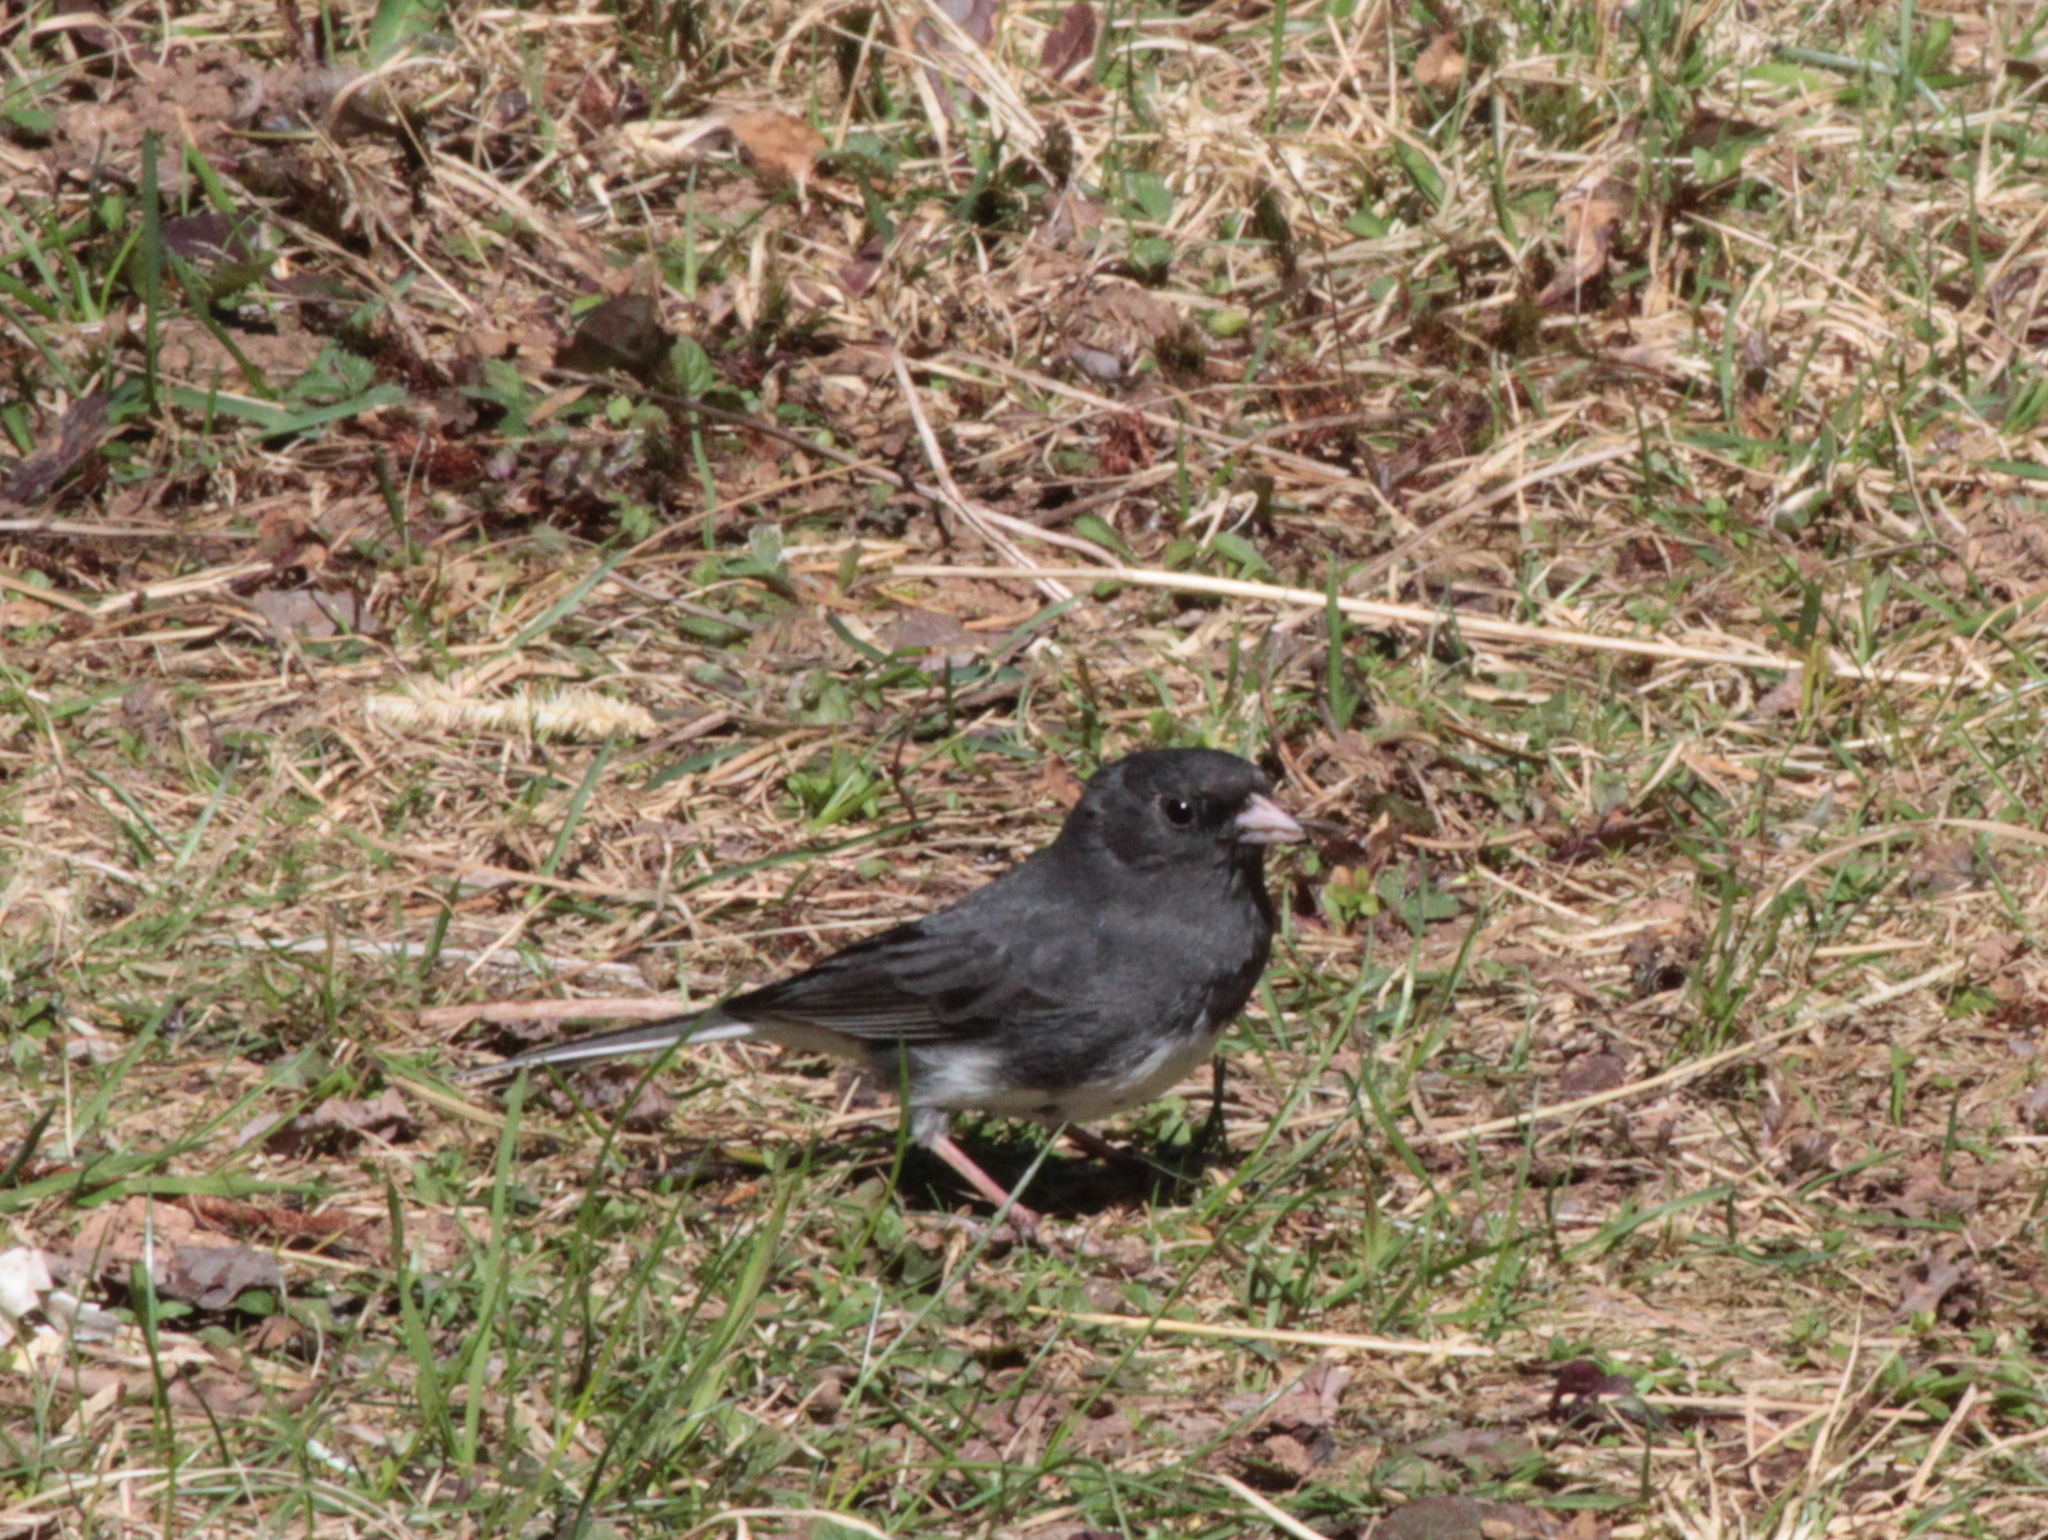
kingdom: Animalia
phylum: Chordata
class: Aves
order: Passeriformes
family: Passerellidae
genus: Junco
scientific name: Junco hyemalis
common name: Dark-eyed junco
